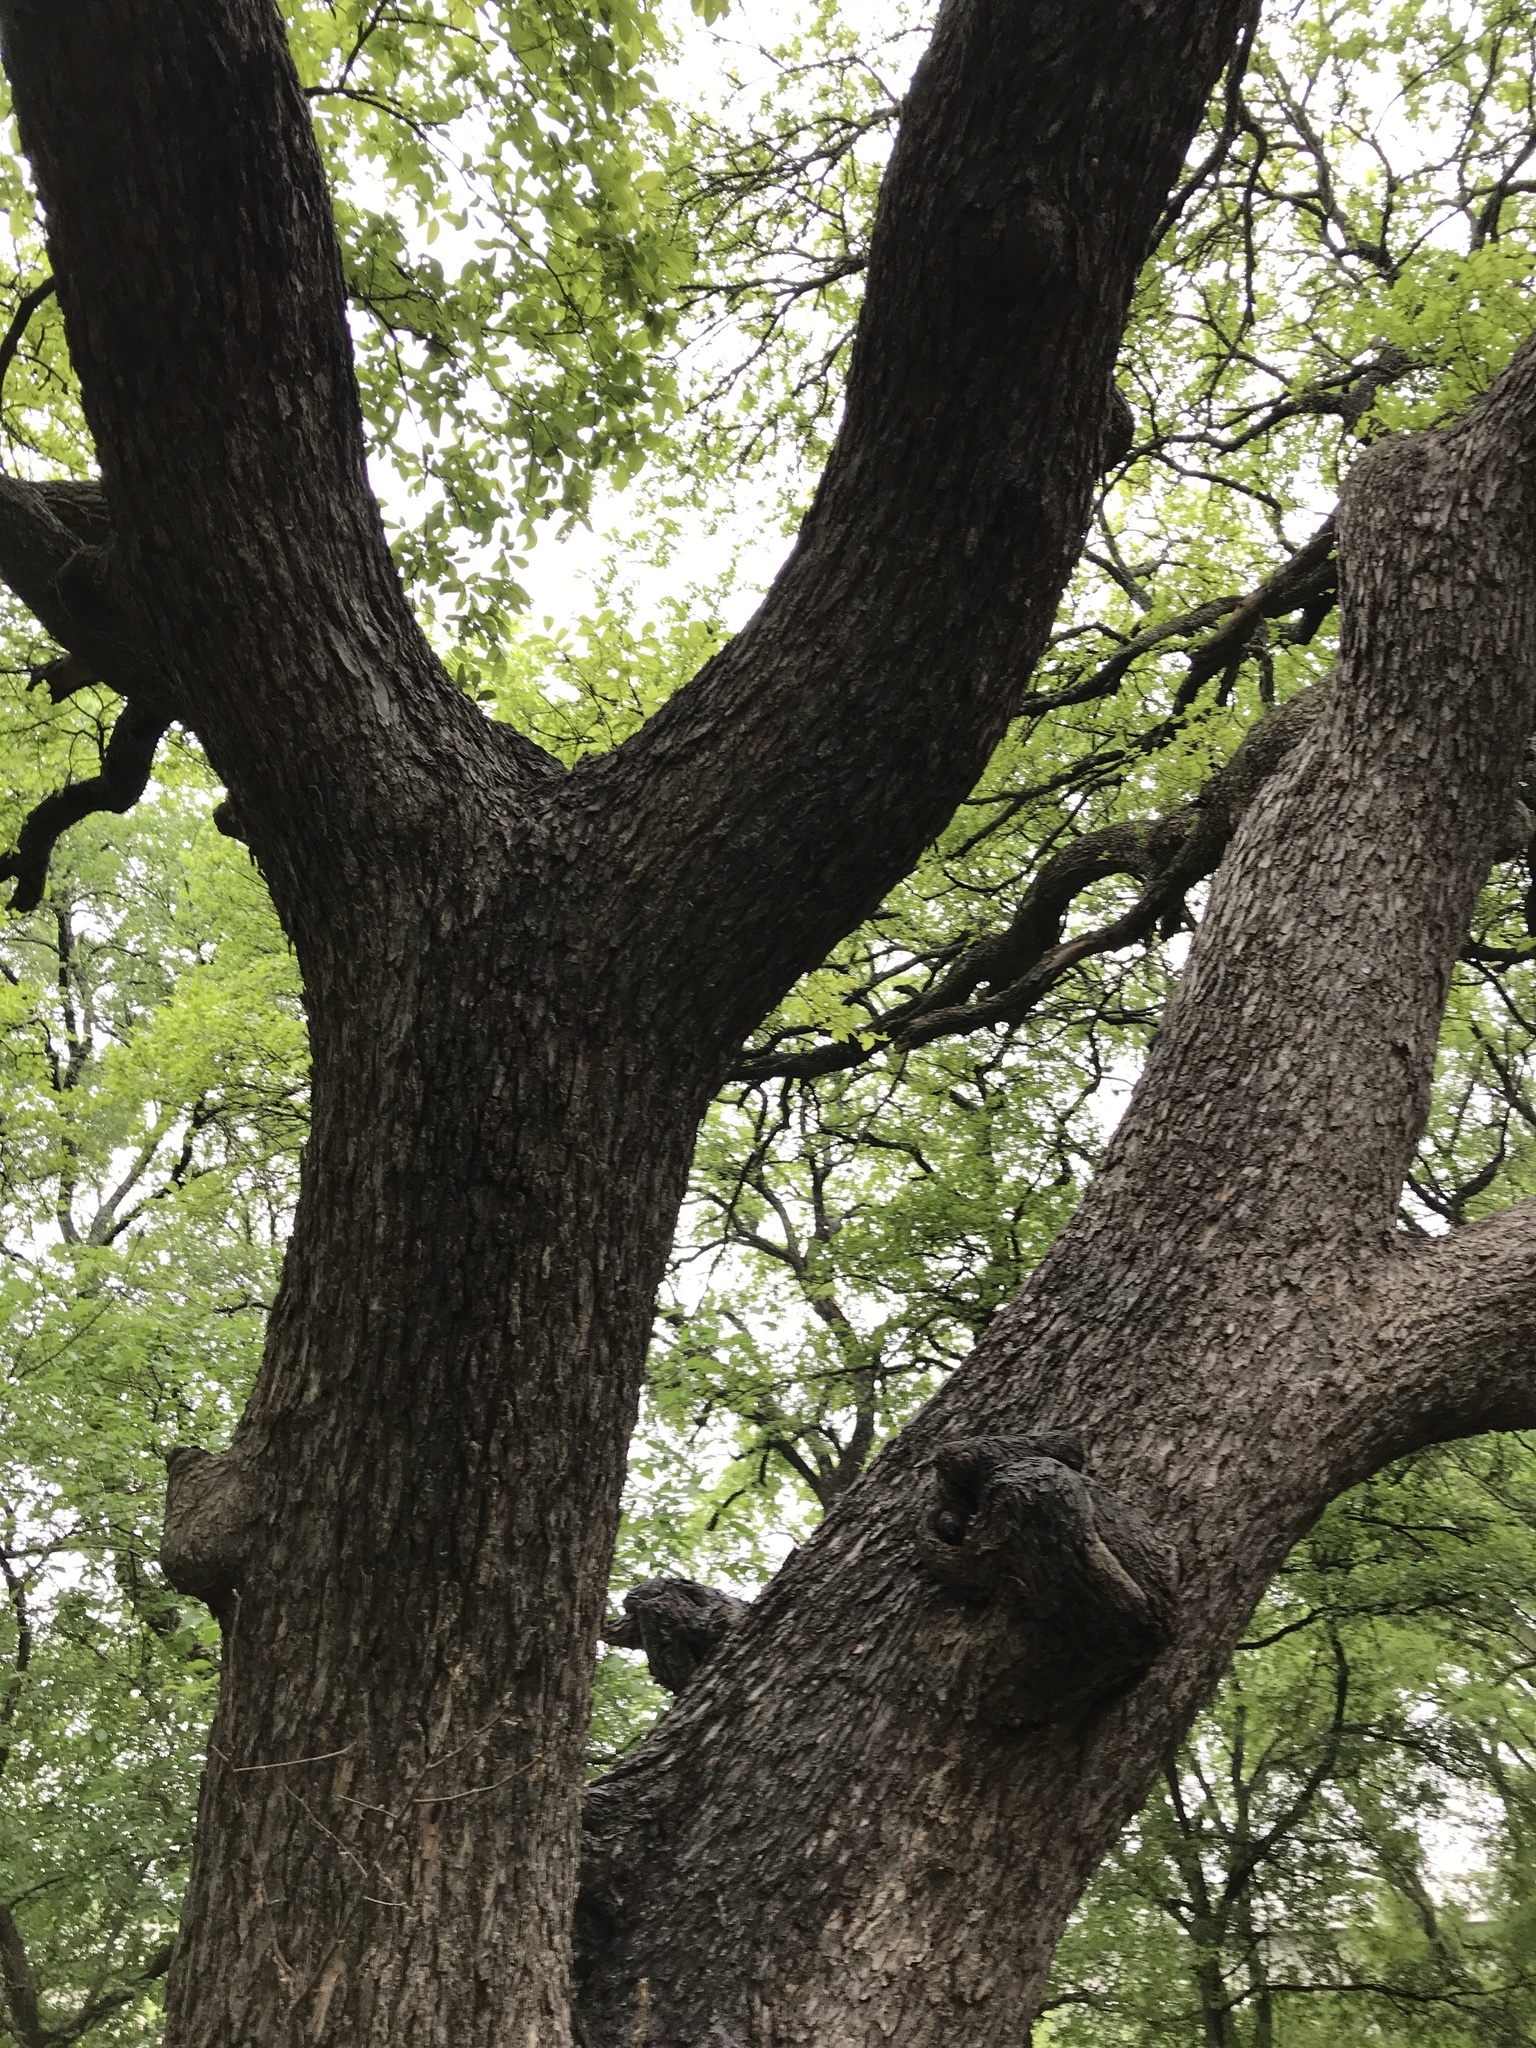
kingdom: Plantae
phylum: Tracheophyta
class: Magnoliopsida
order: Rosales
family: Ulmaceae
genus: Ulmus
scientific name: Ulmus crassifolia
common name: Basket elm
